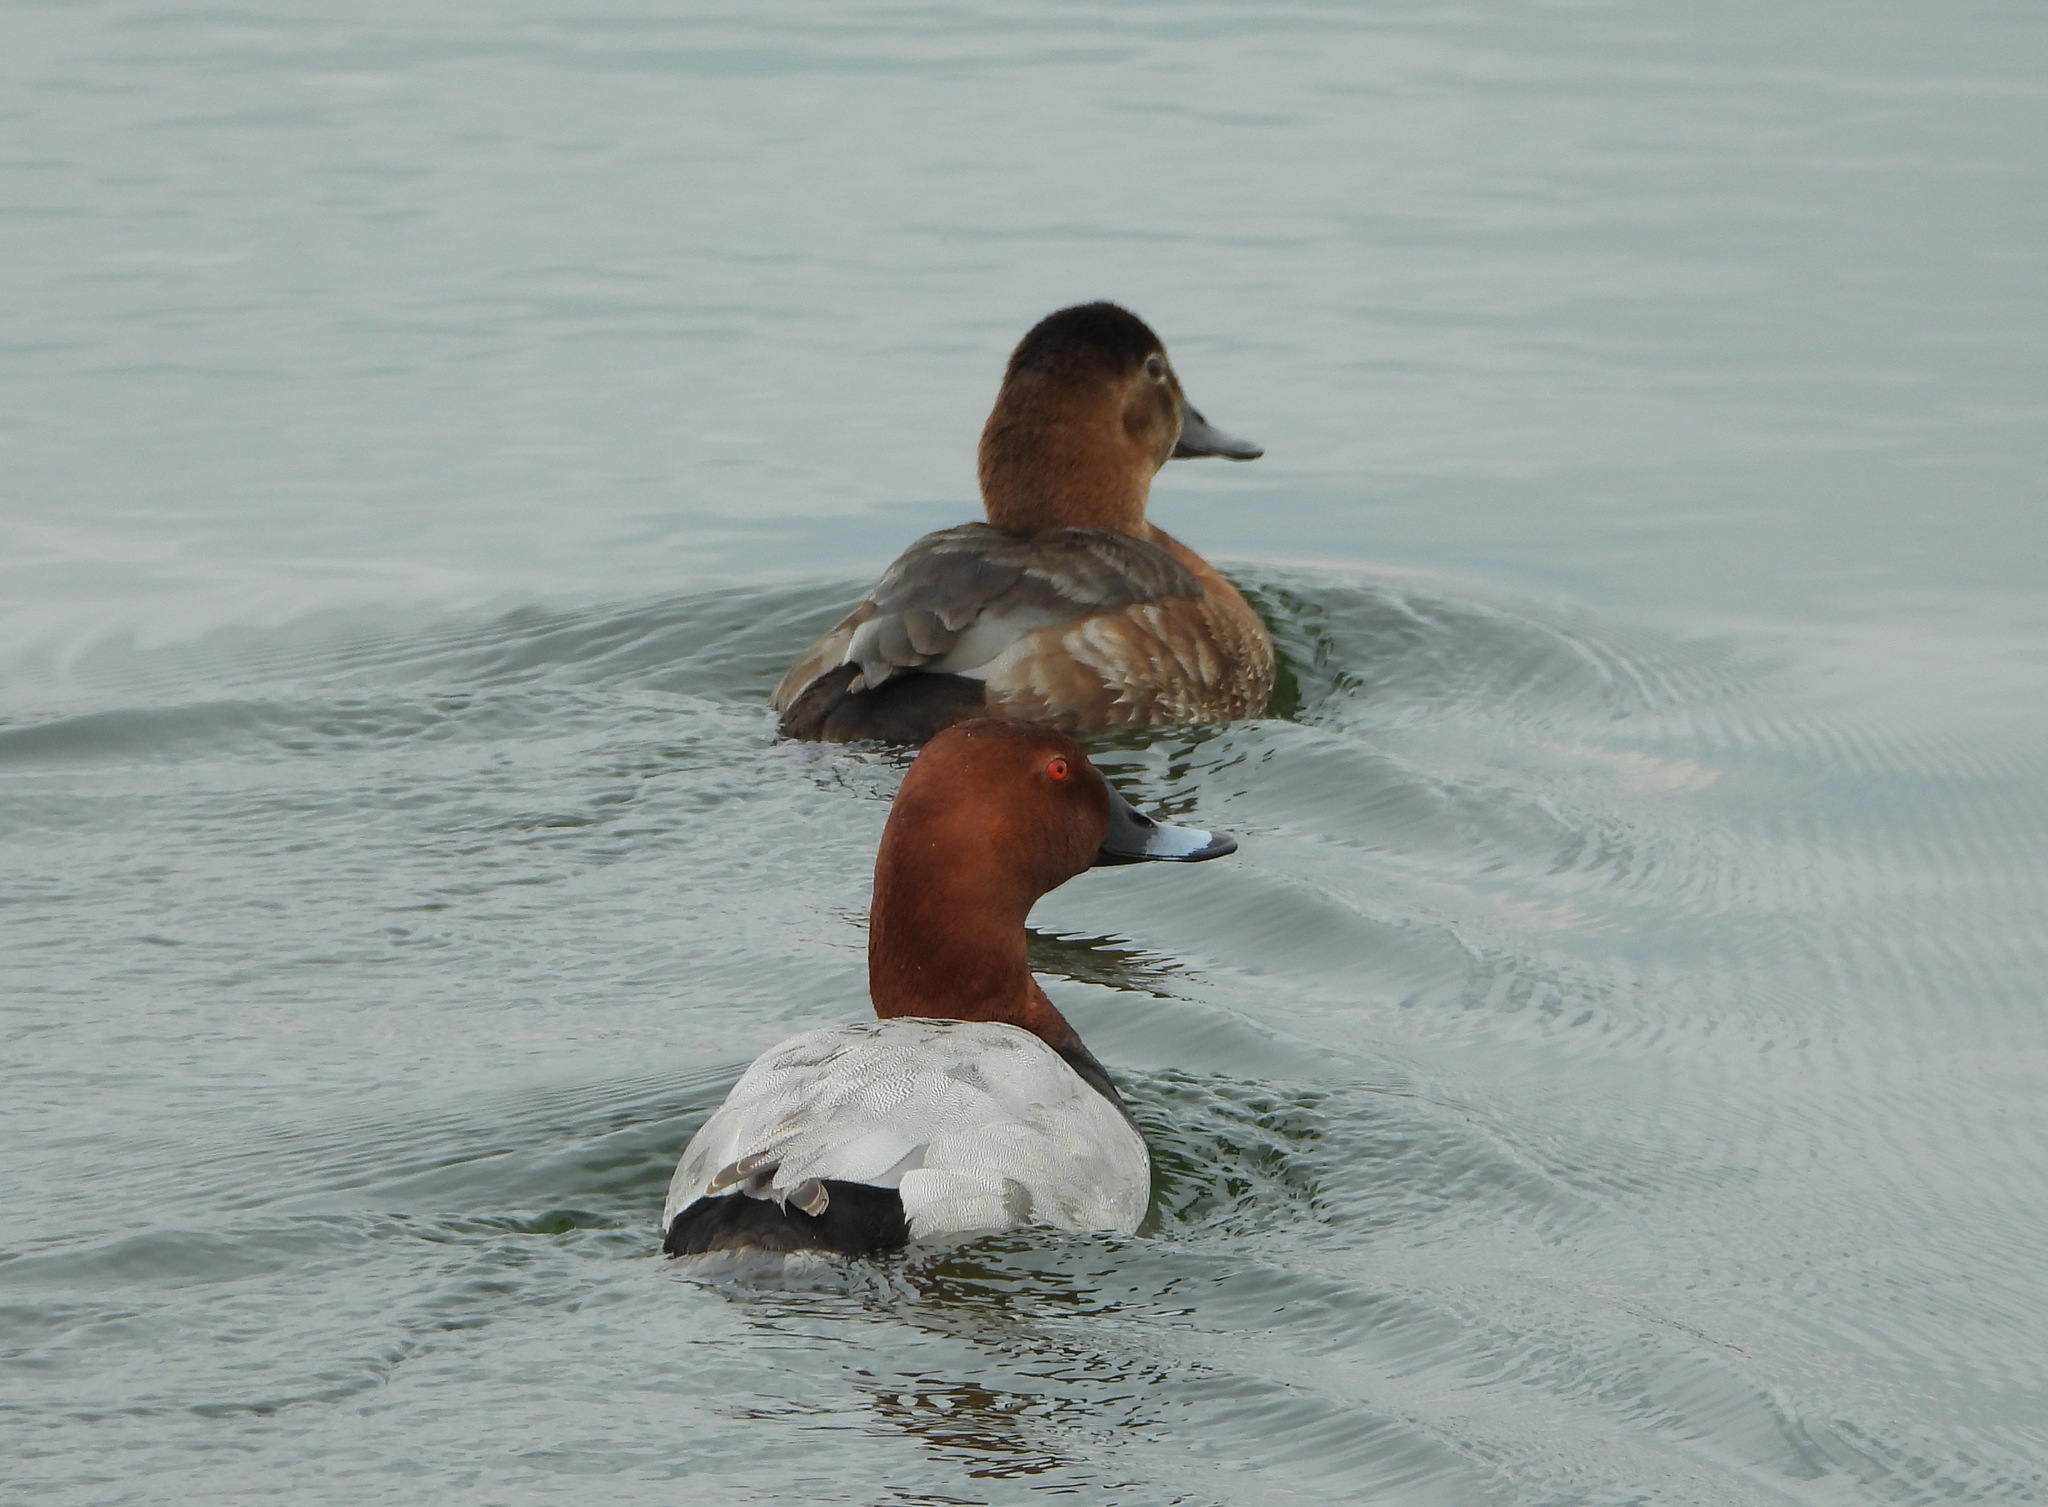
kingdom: Animalia
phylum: Chordata
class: Aves
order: Anseriformes
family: Anatidae
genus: Aythya
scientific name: Aythya ferina
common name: Common pochard
